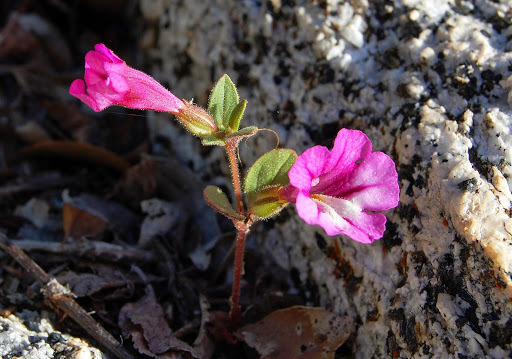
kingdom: Plantae
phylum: Tracheophyta
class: Magnoliopsida
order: Lamiales
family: Phrymaceae
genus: Diplacus
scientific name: Diplacus layneae
